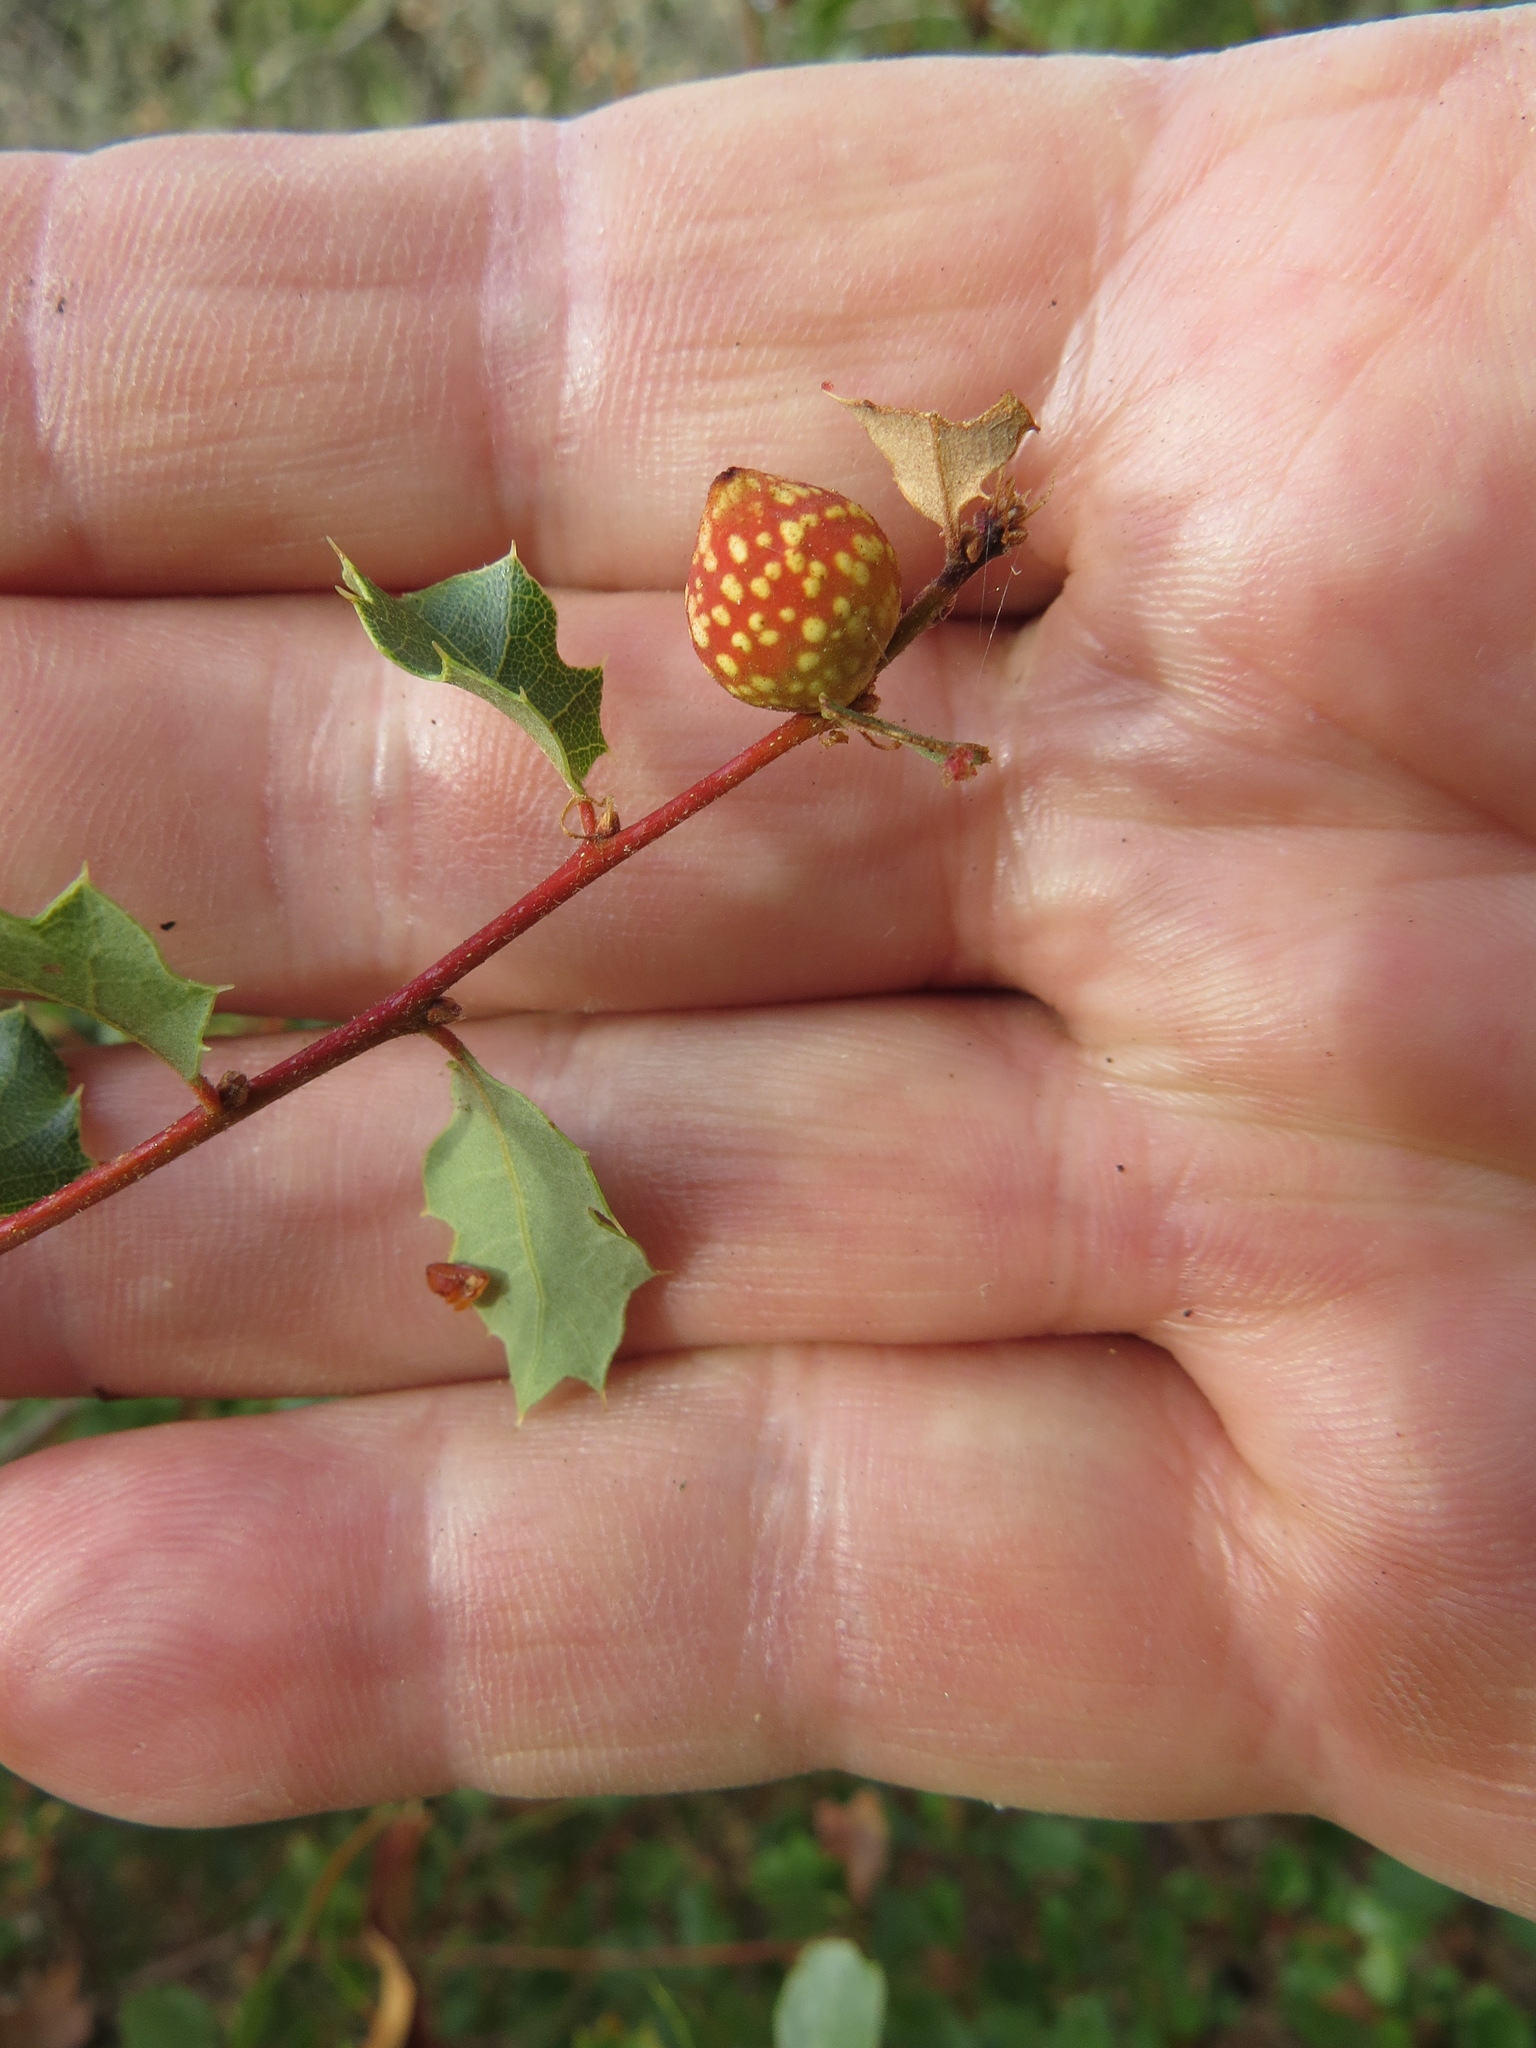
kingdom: Animalia
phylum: Arthropoda
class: Insecta
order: Hymenoptera
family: Cynipidae
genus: Burnettweldia
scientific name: Burnettweldia
